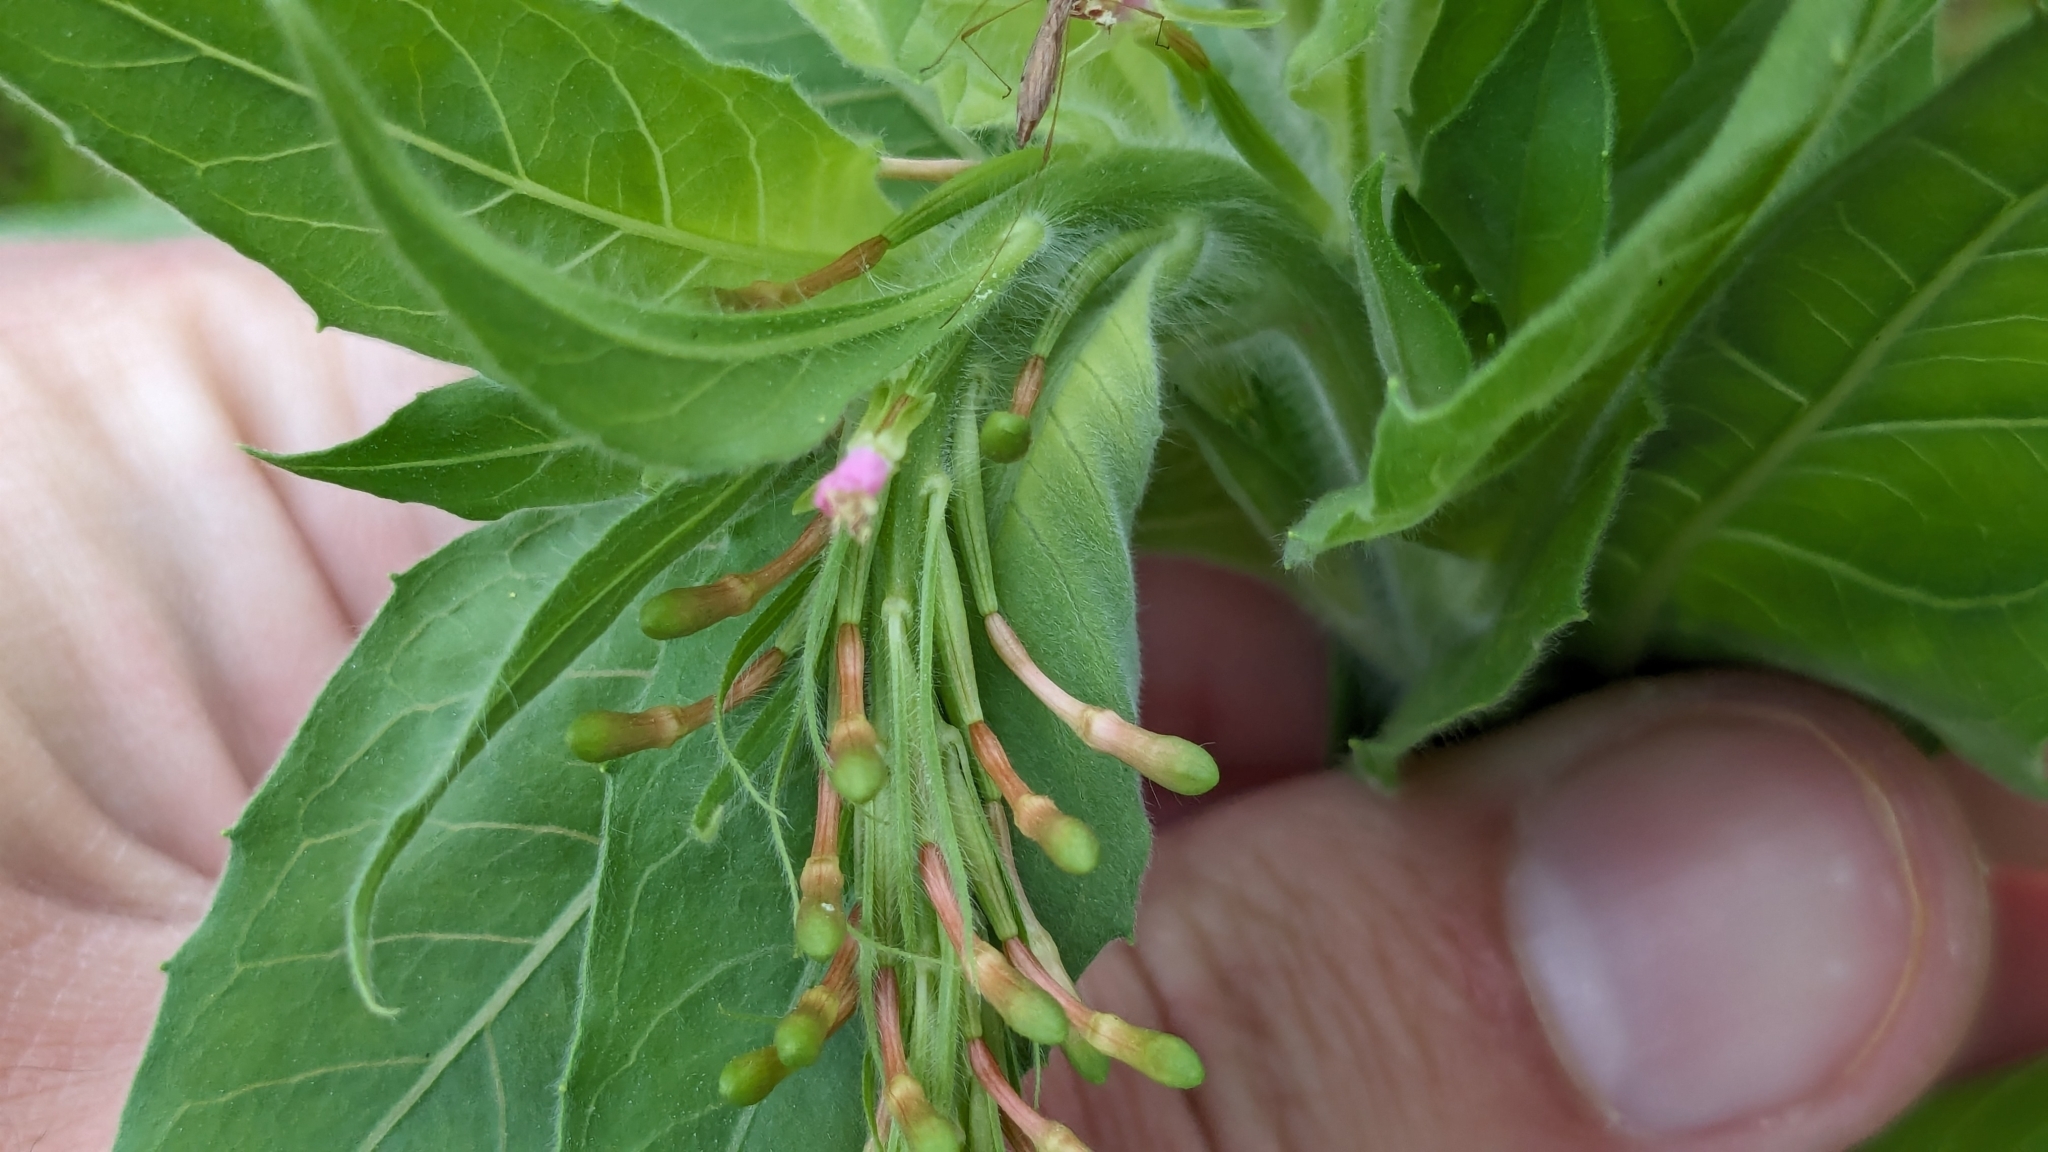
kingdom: Plantae
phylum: Tracheophyta
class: Magnoliopsida
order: Myrtales
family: Onagraceae
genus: Oenothera
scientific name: Oenothera curtiflora
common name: Velvetweed
